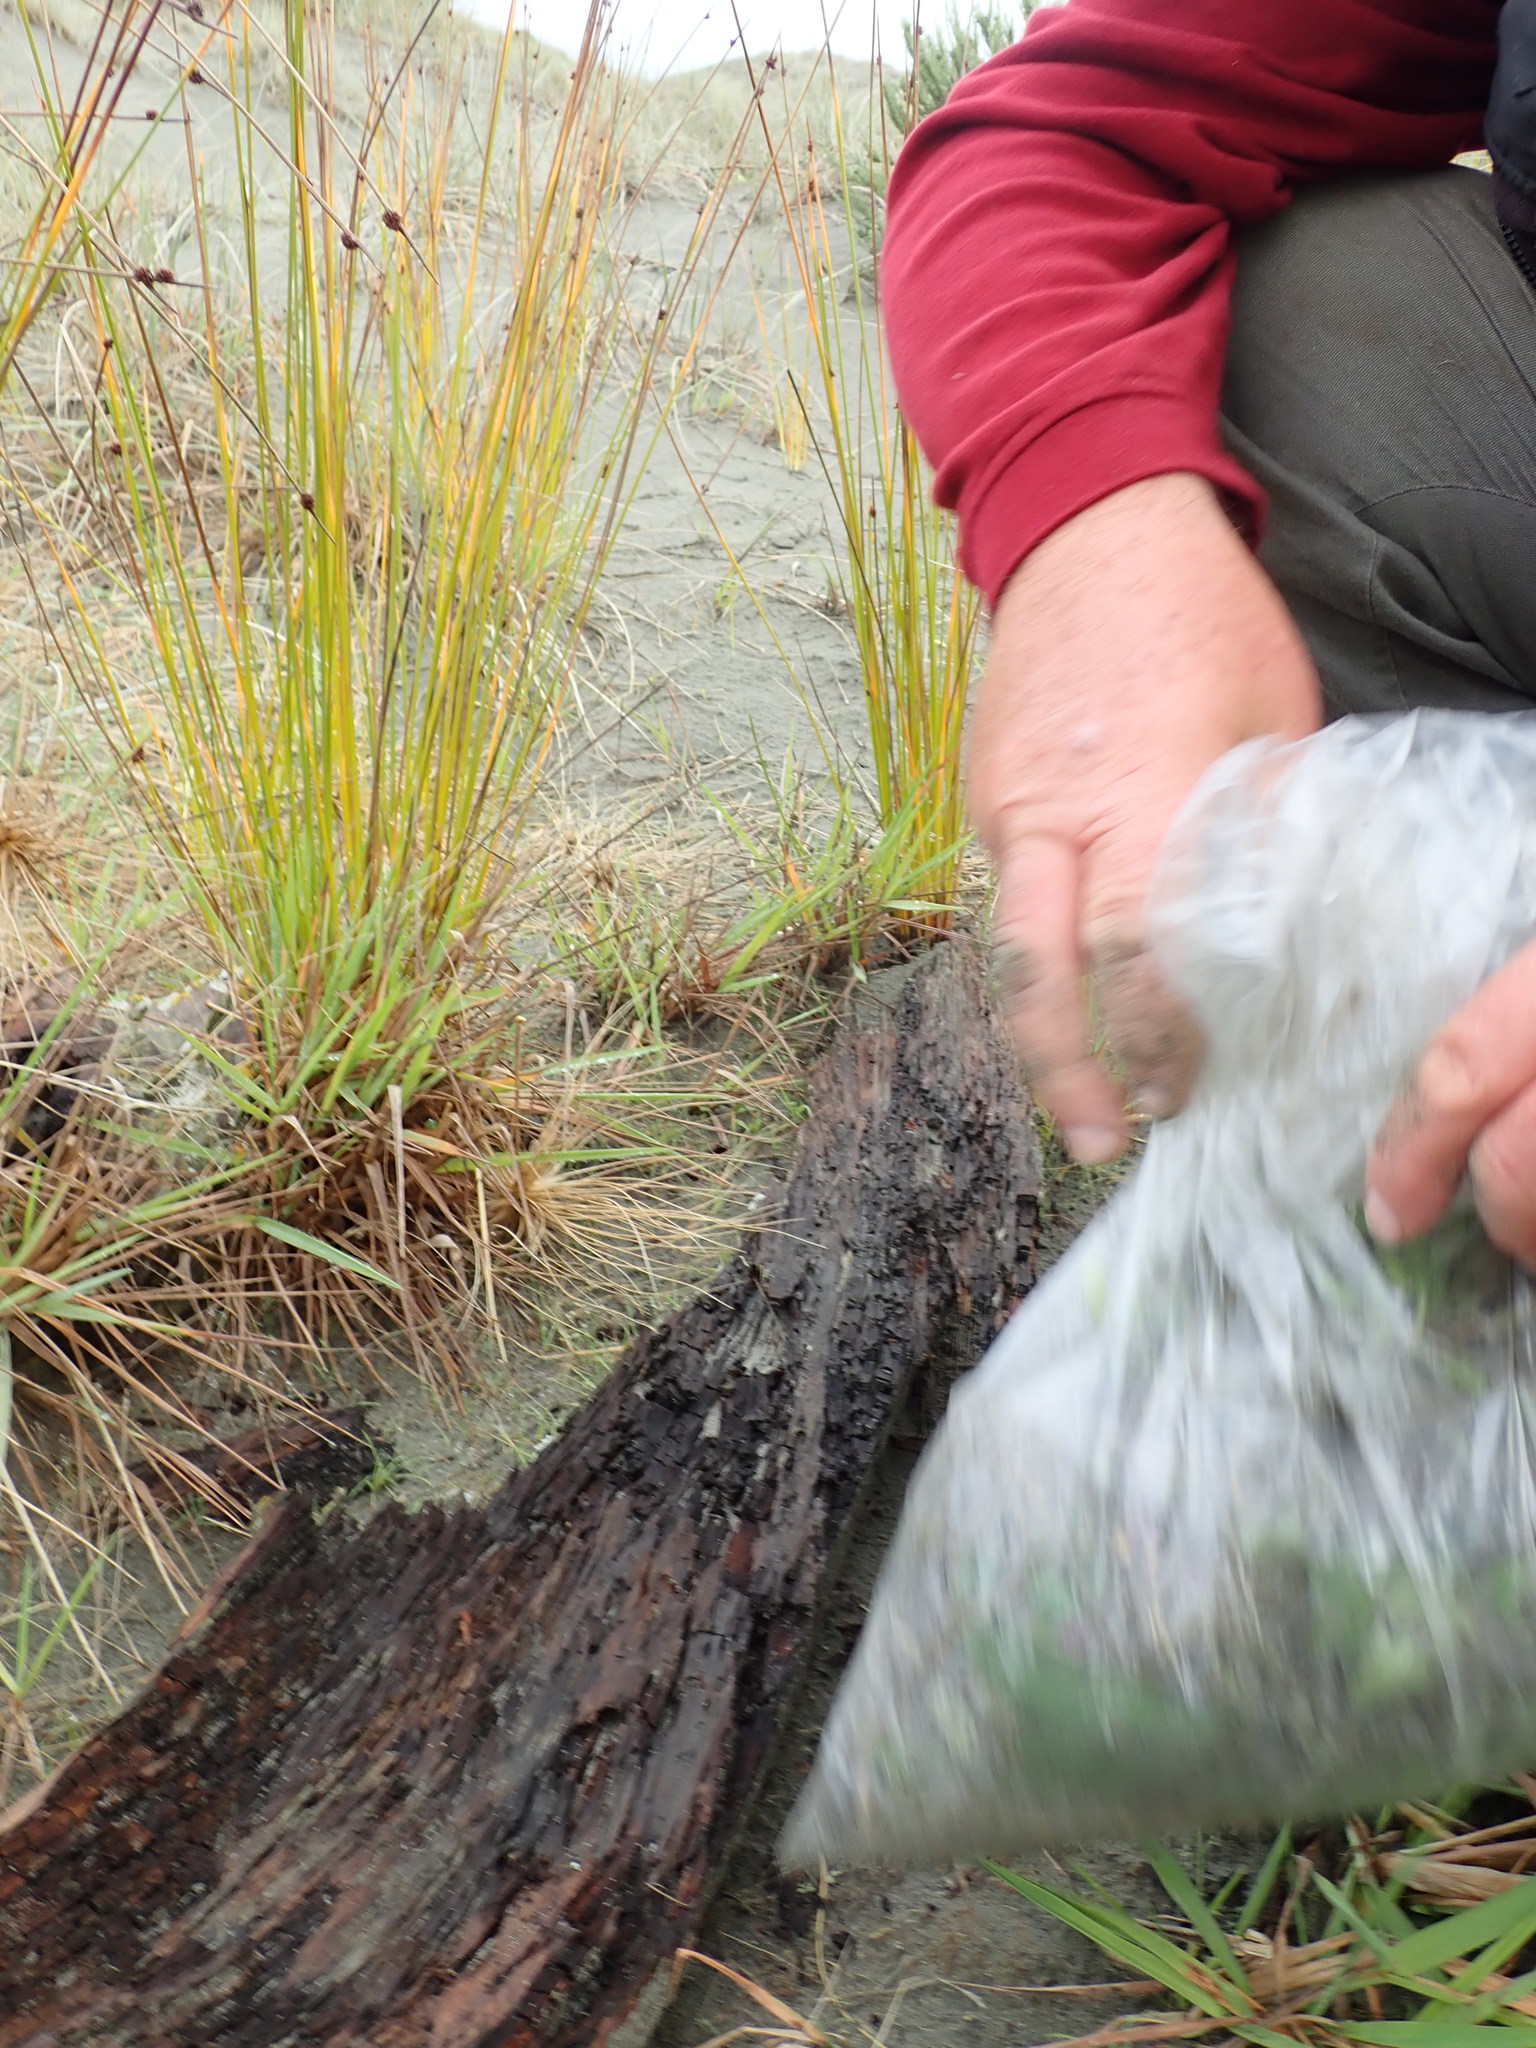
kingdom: Animalia
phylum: Arthropoda
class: Arachnida
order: Araneae
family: Theridiidae
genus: Steatoda
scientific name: Steatoda capensis
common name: Cobweb weaver
